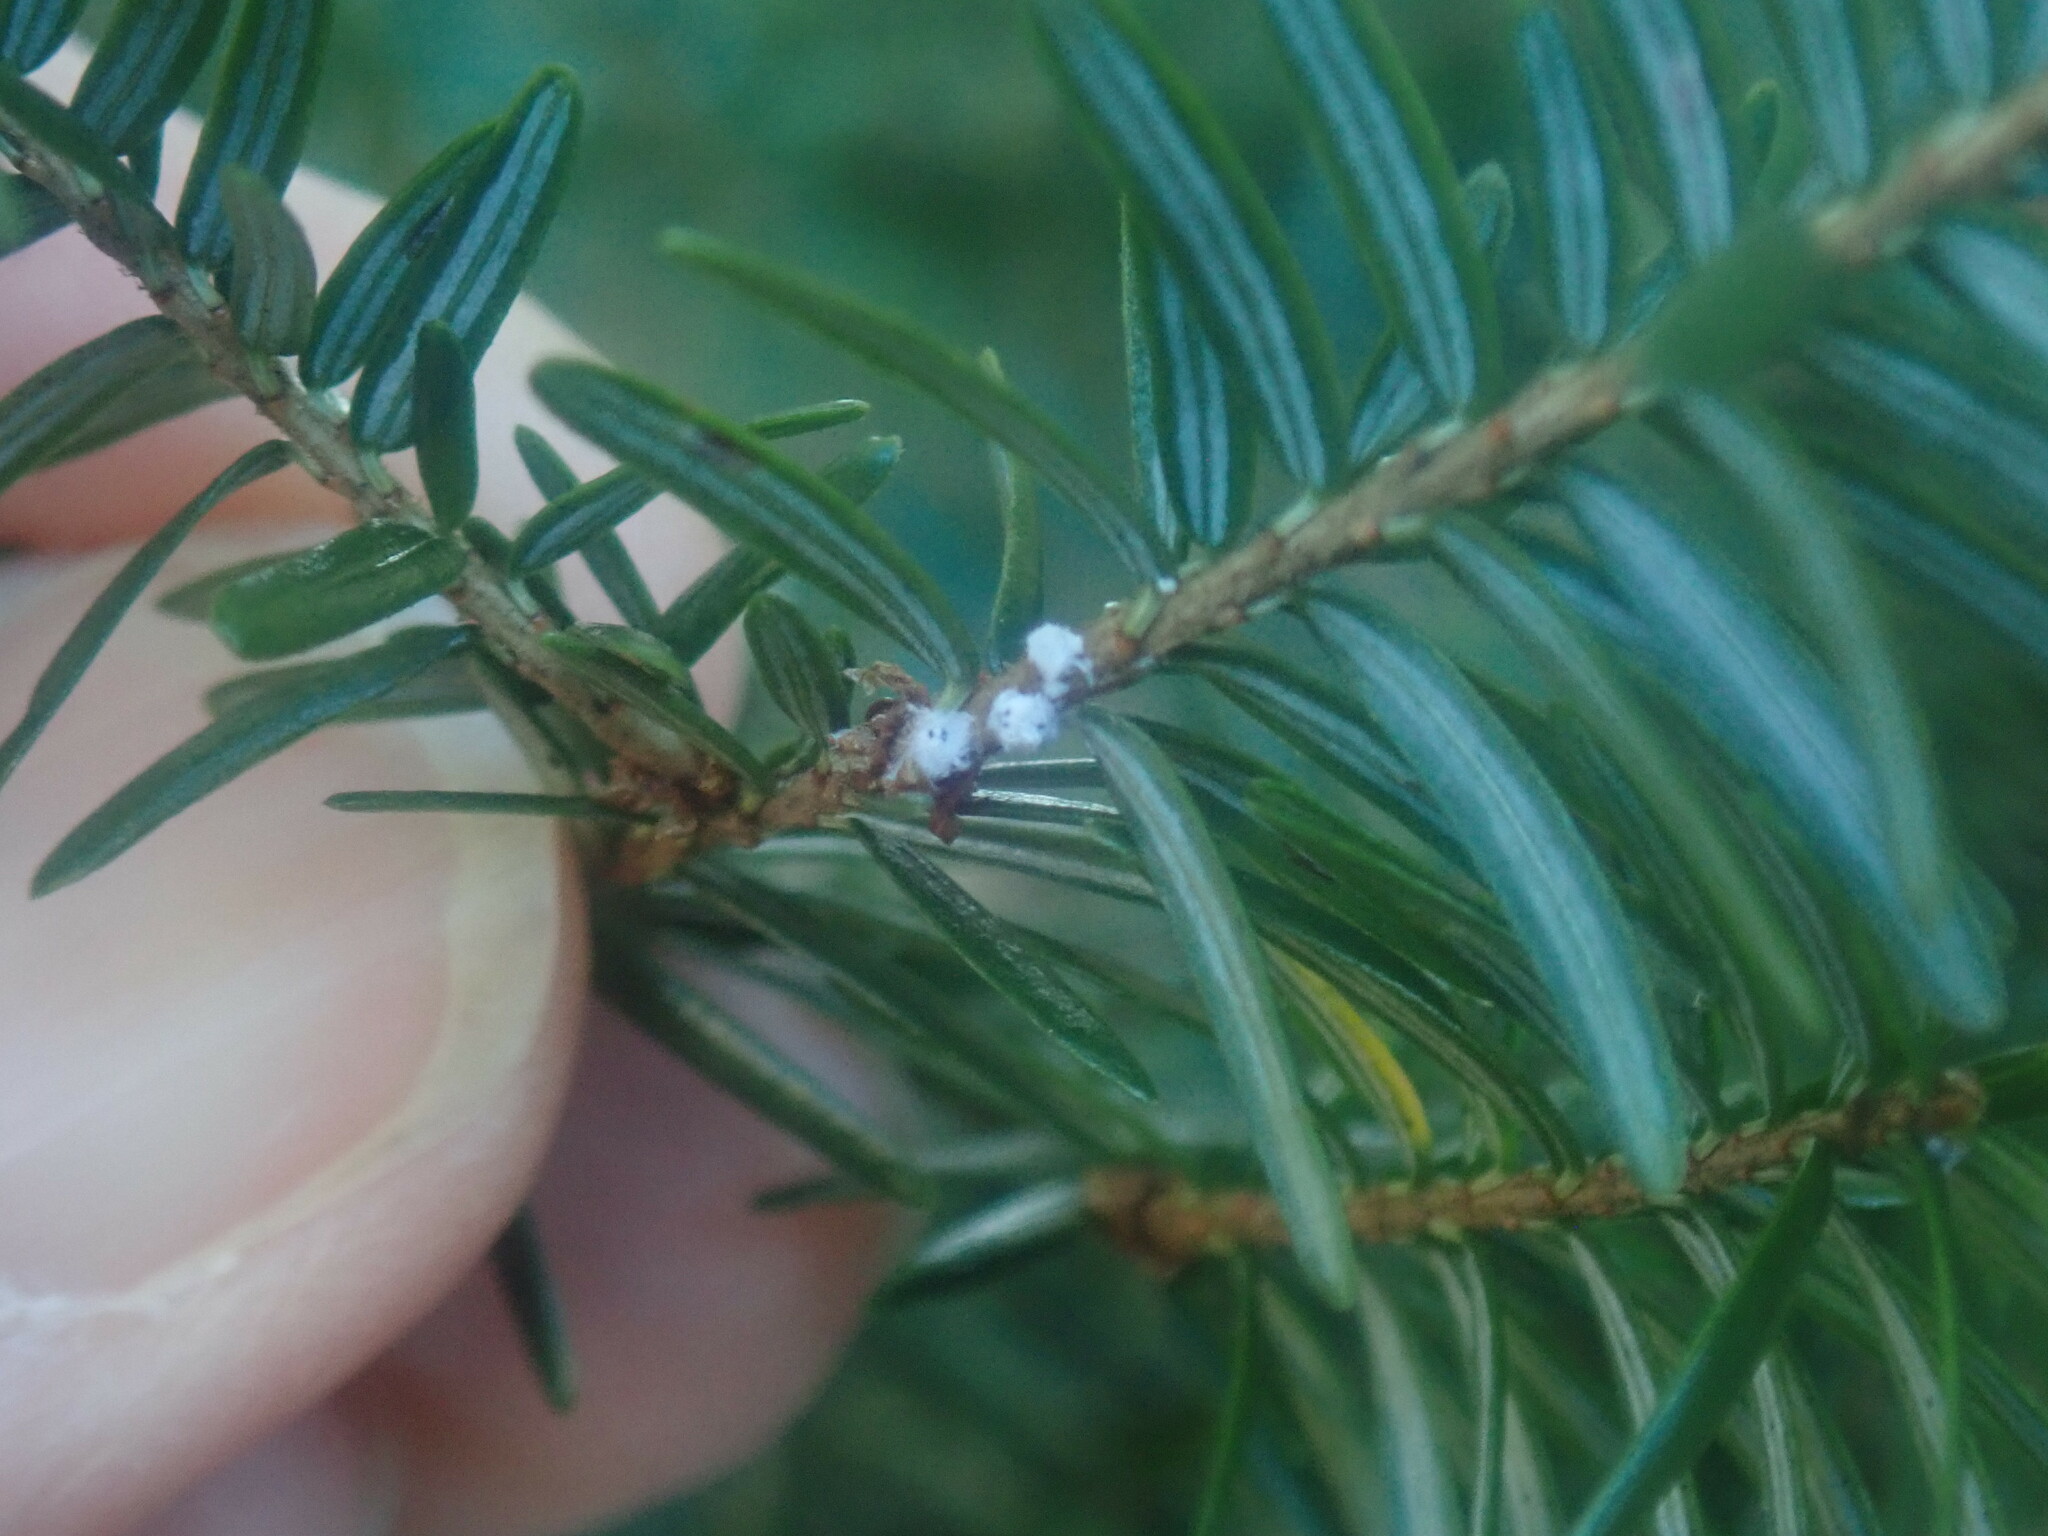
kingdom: Animalia
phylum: Arthropoda
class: Insecta
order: Hemiptera
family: Adelgidae
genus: Adelges
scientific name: Adelges tsugae
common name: Hemlock woolly adelgid
